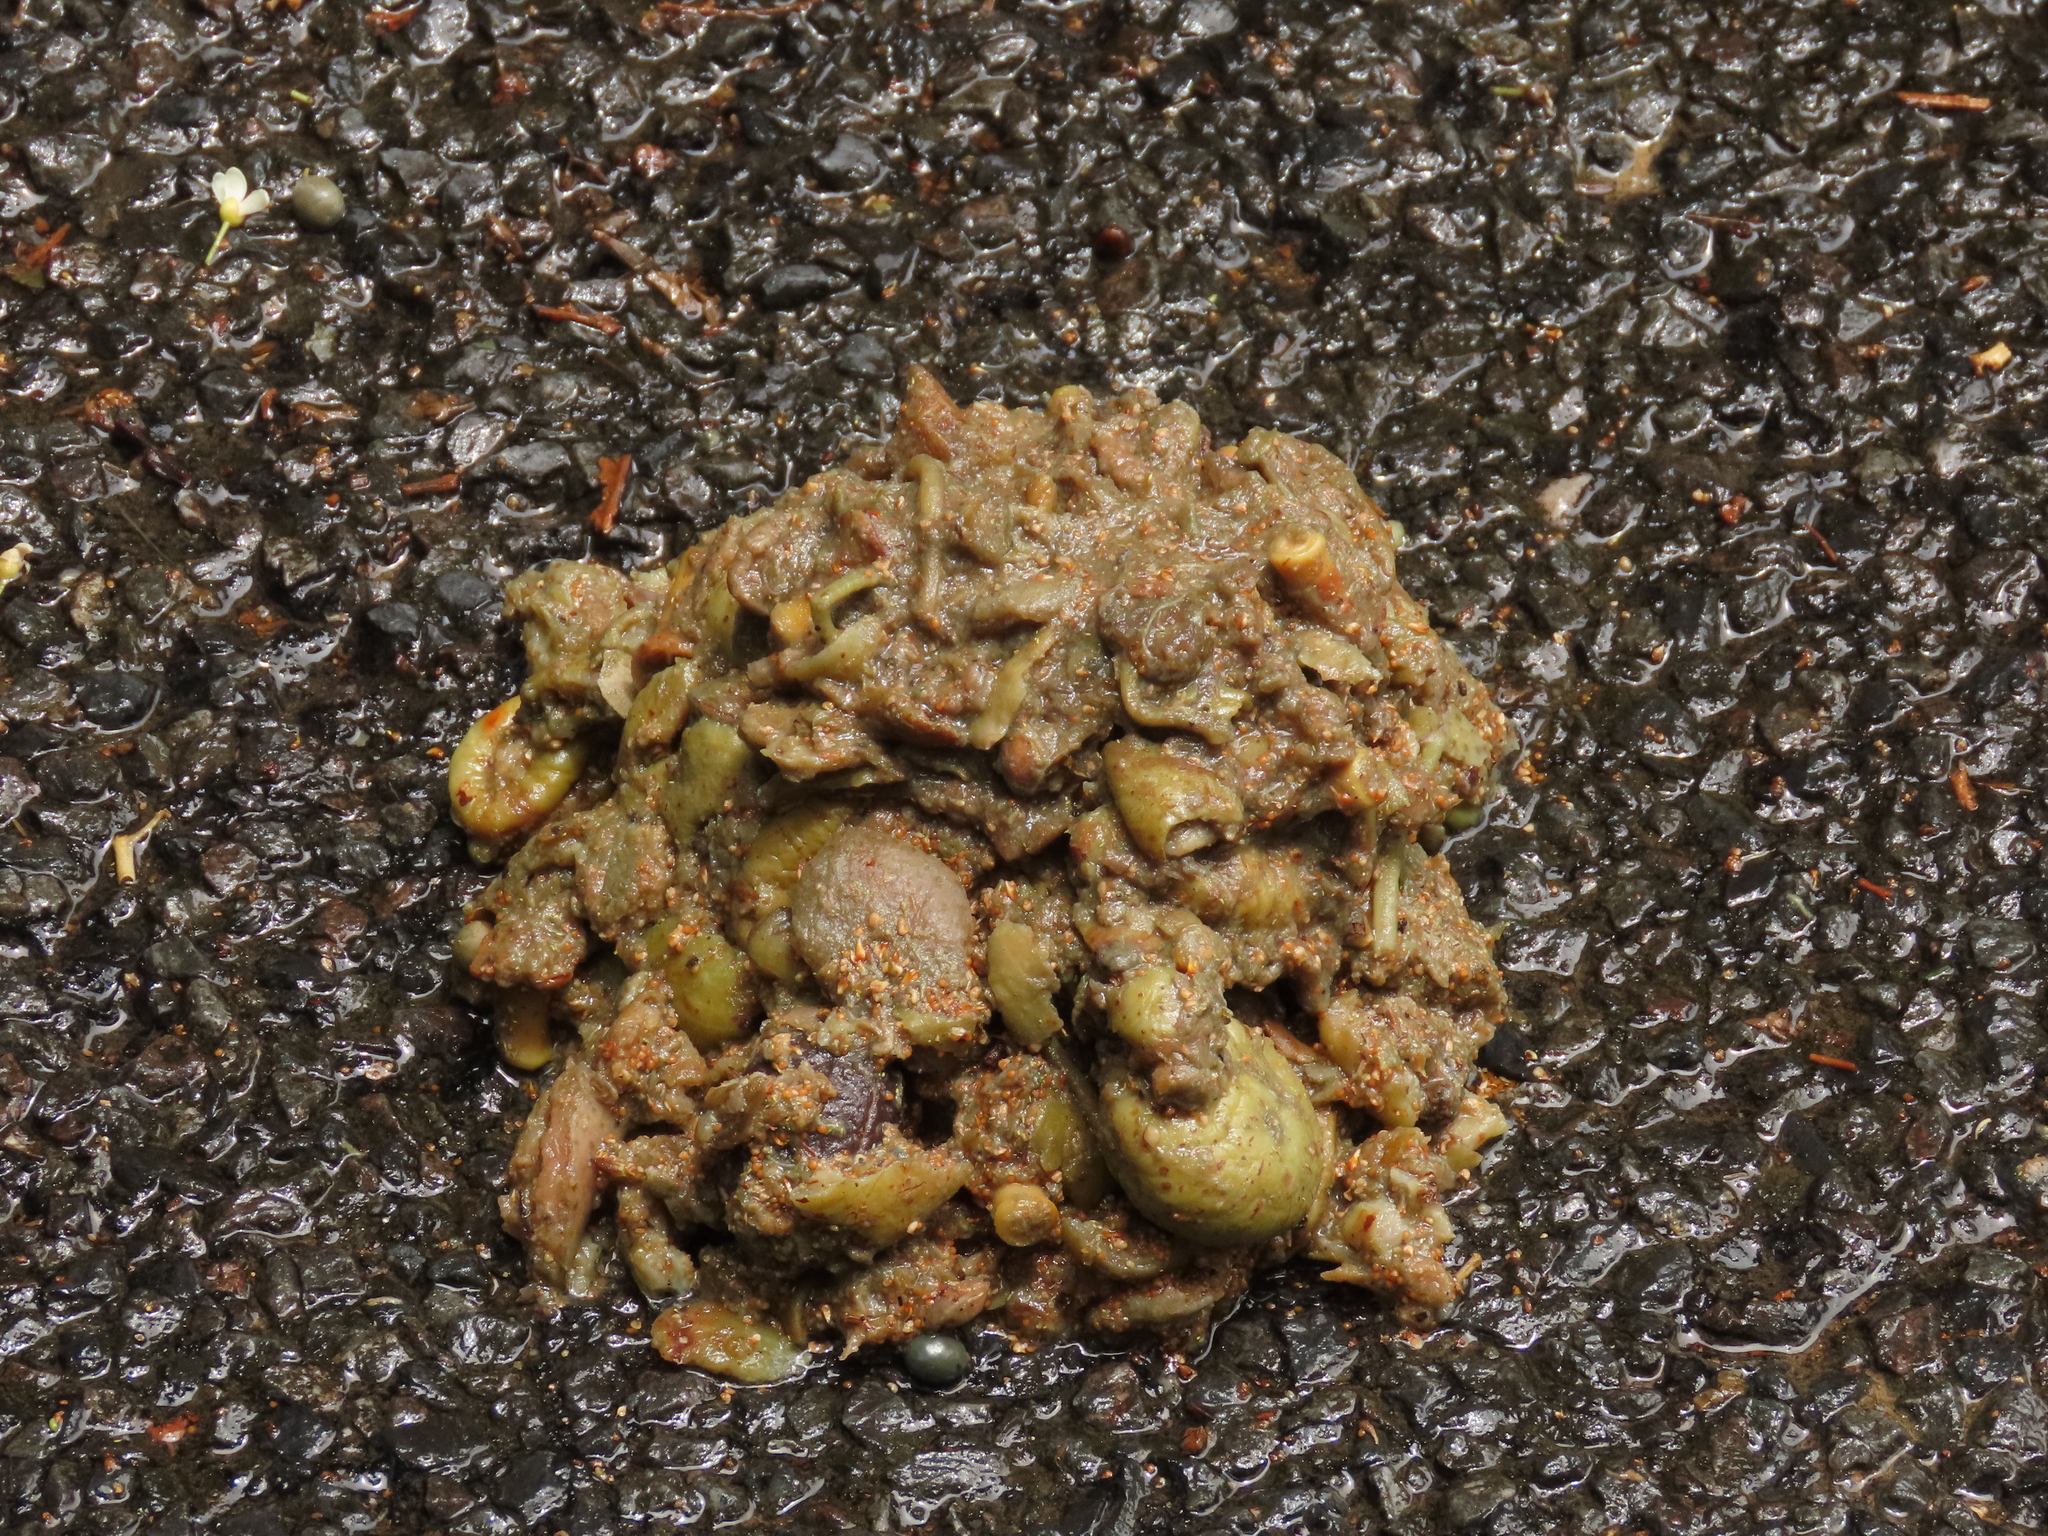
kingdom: Animalia
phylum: Chordata
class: Aves
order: Casuariiformes
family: Casuariidae
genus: Casuarius
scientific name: Casuarius casuarius
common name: Southern cassowary
